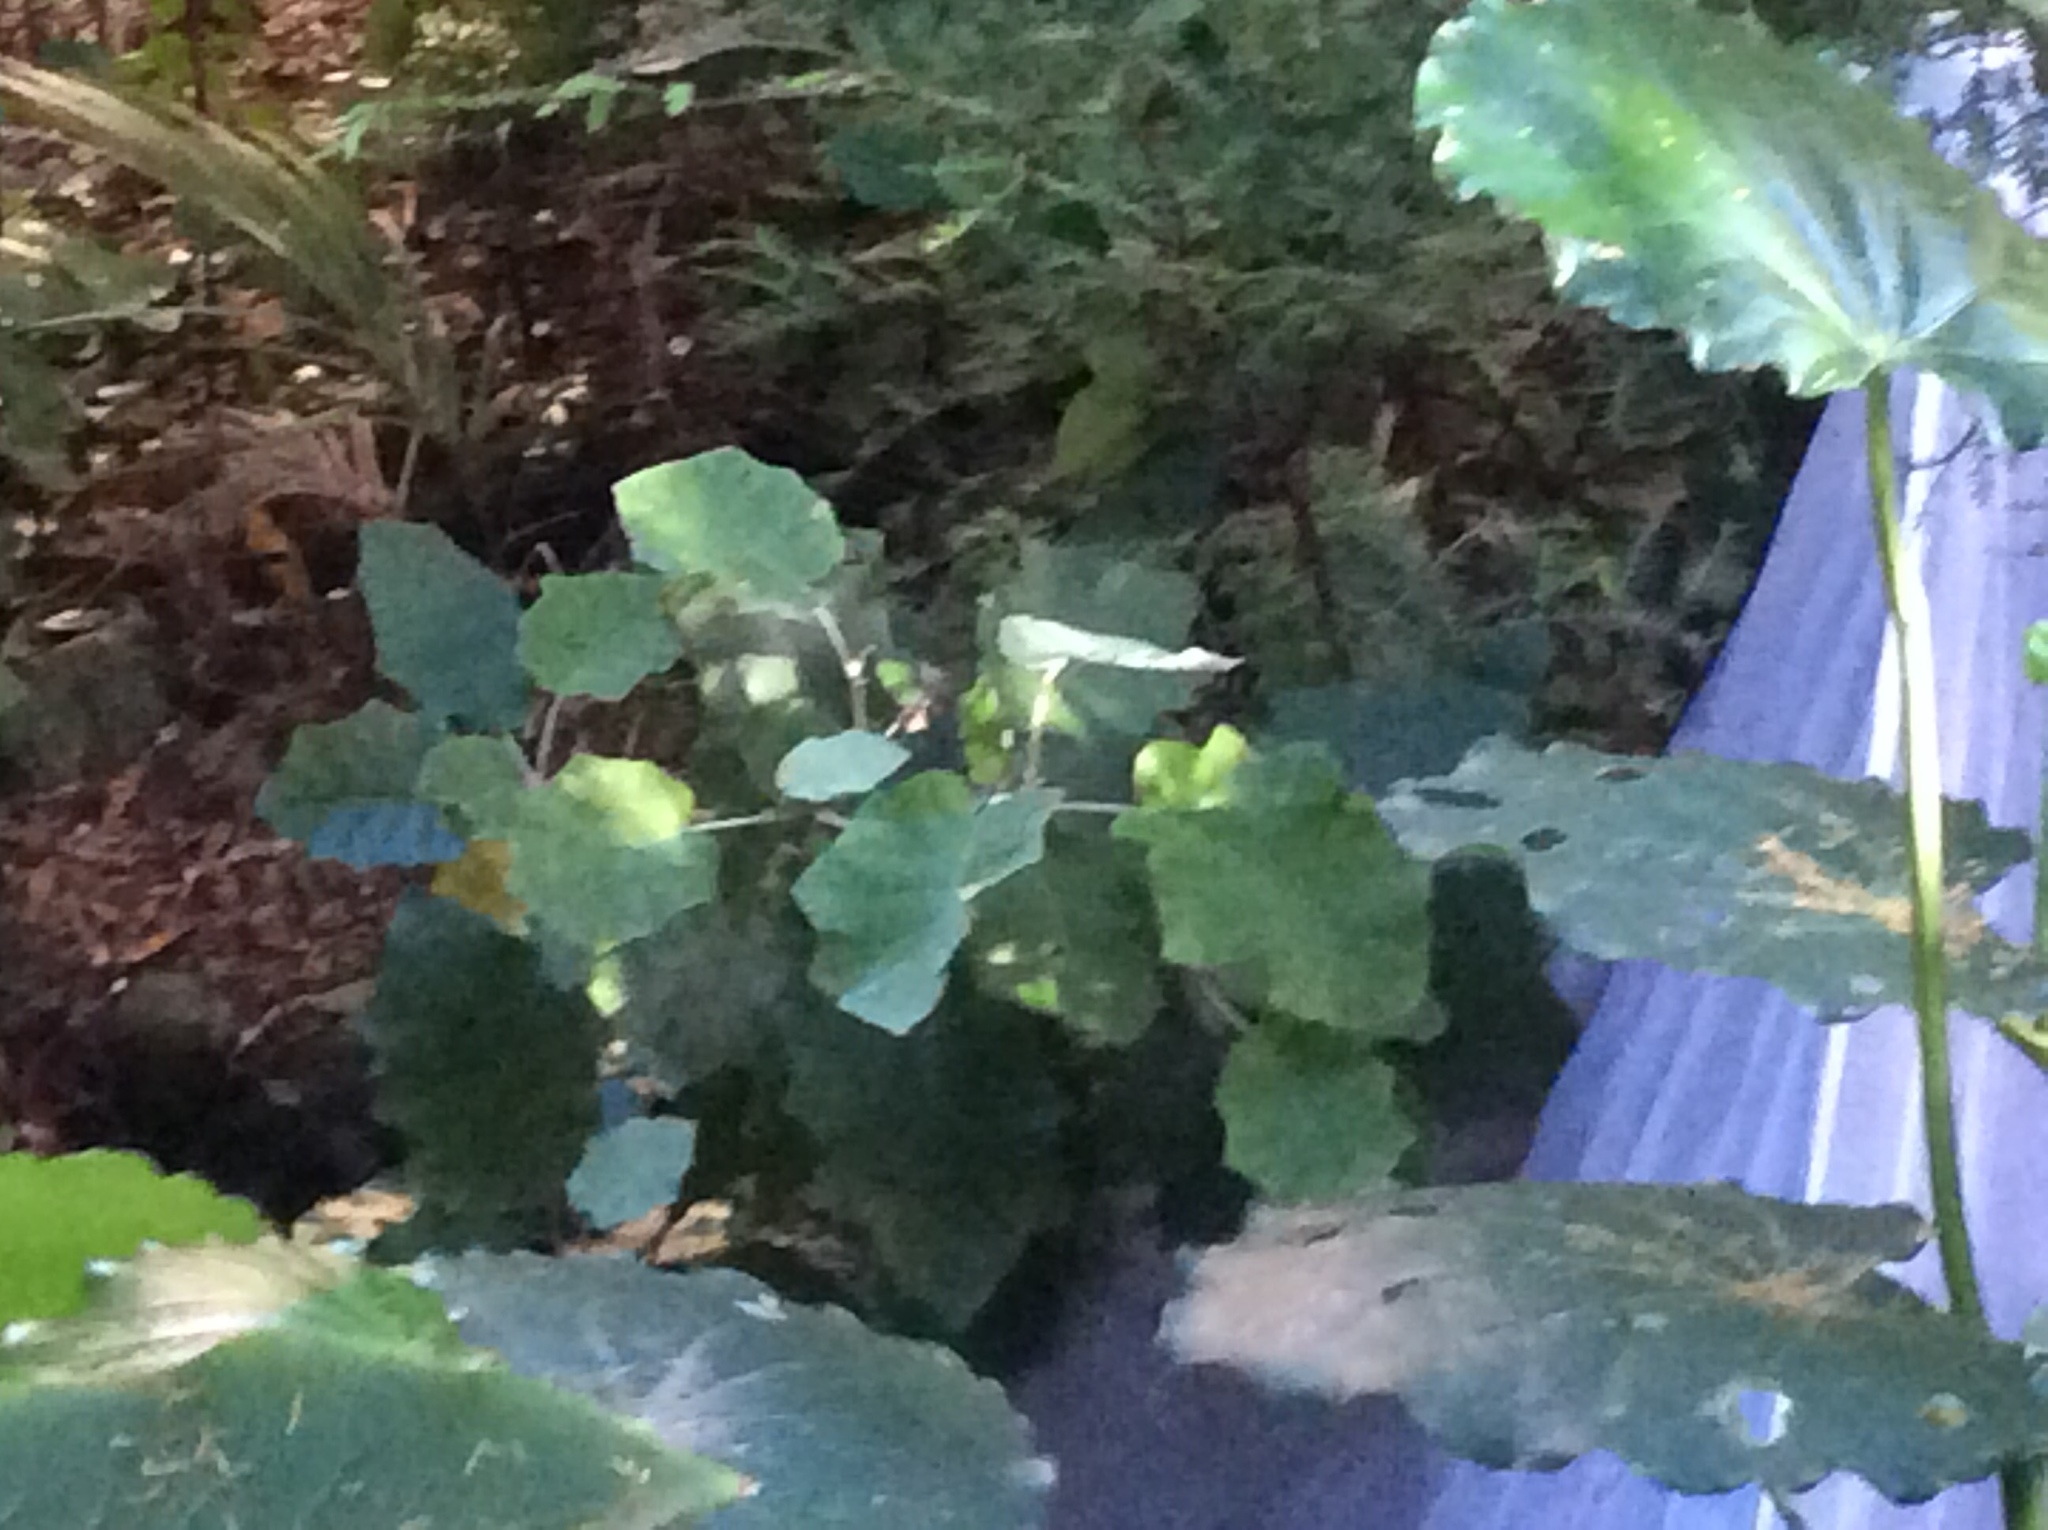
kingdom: Plantae
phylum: Tracheophyta
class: Magnoliopsida
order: Asterales
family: Asteraceae
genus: Brachyglottis
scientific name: Brachyglottis repanda
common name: Hedge ragwort
